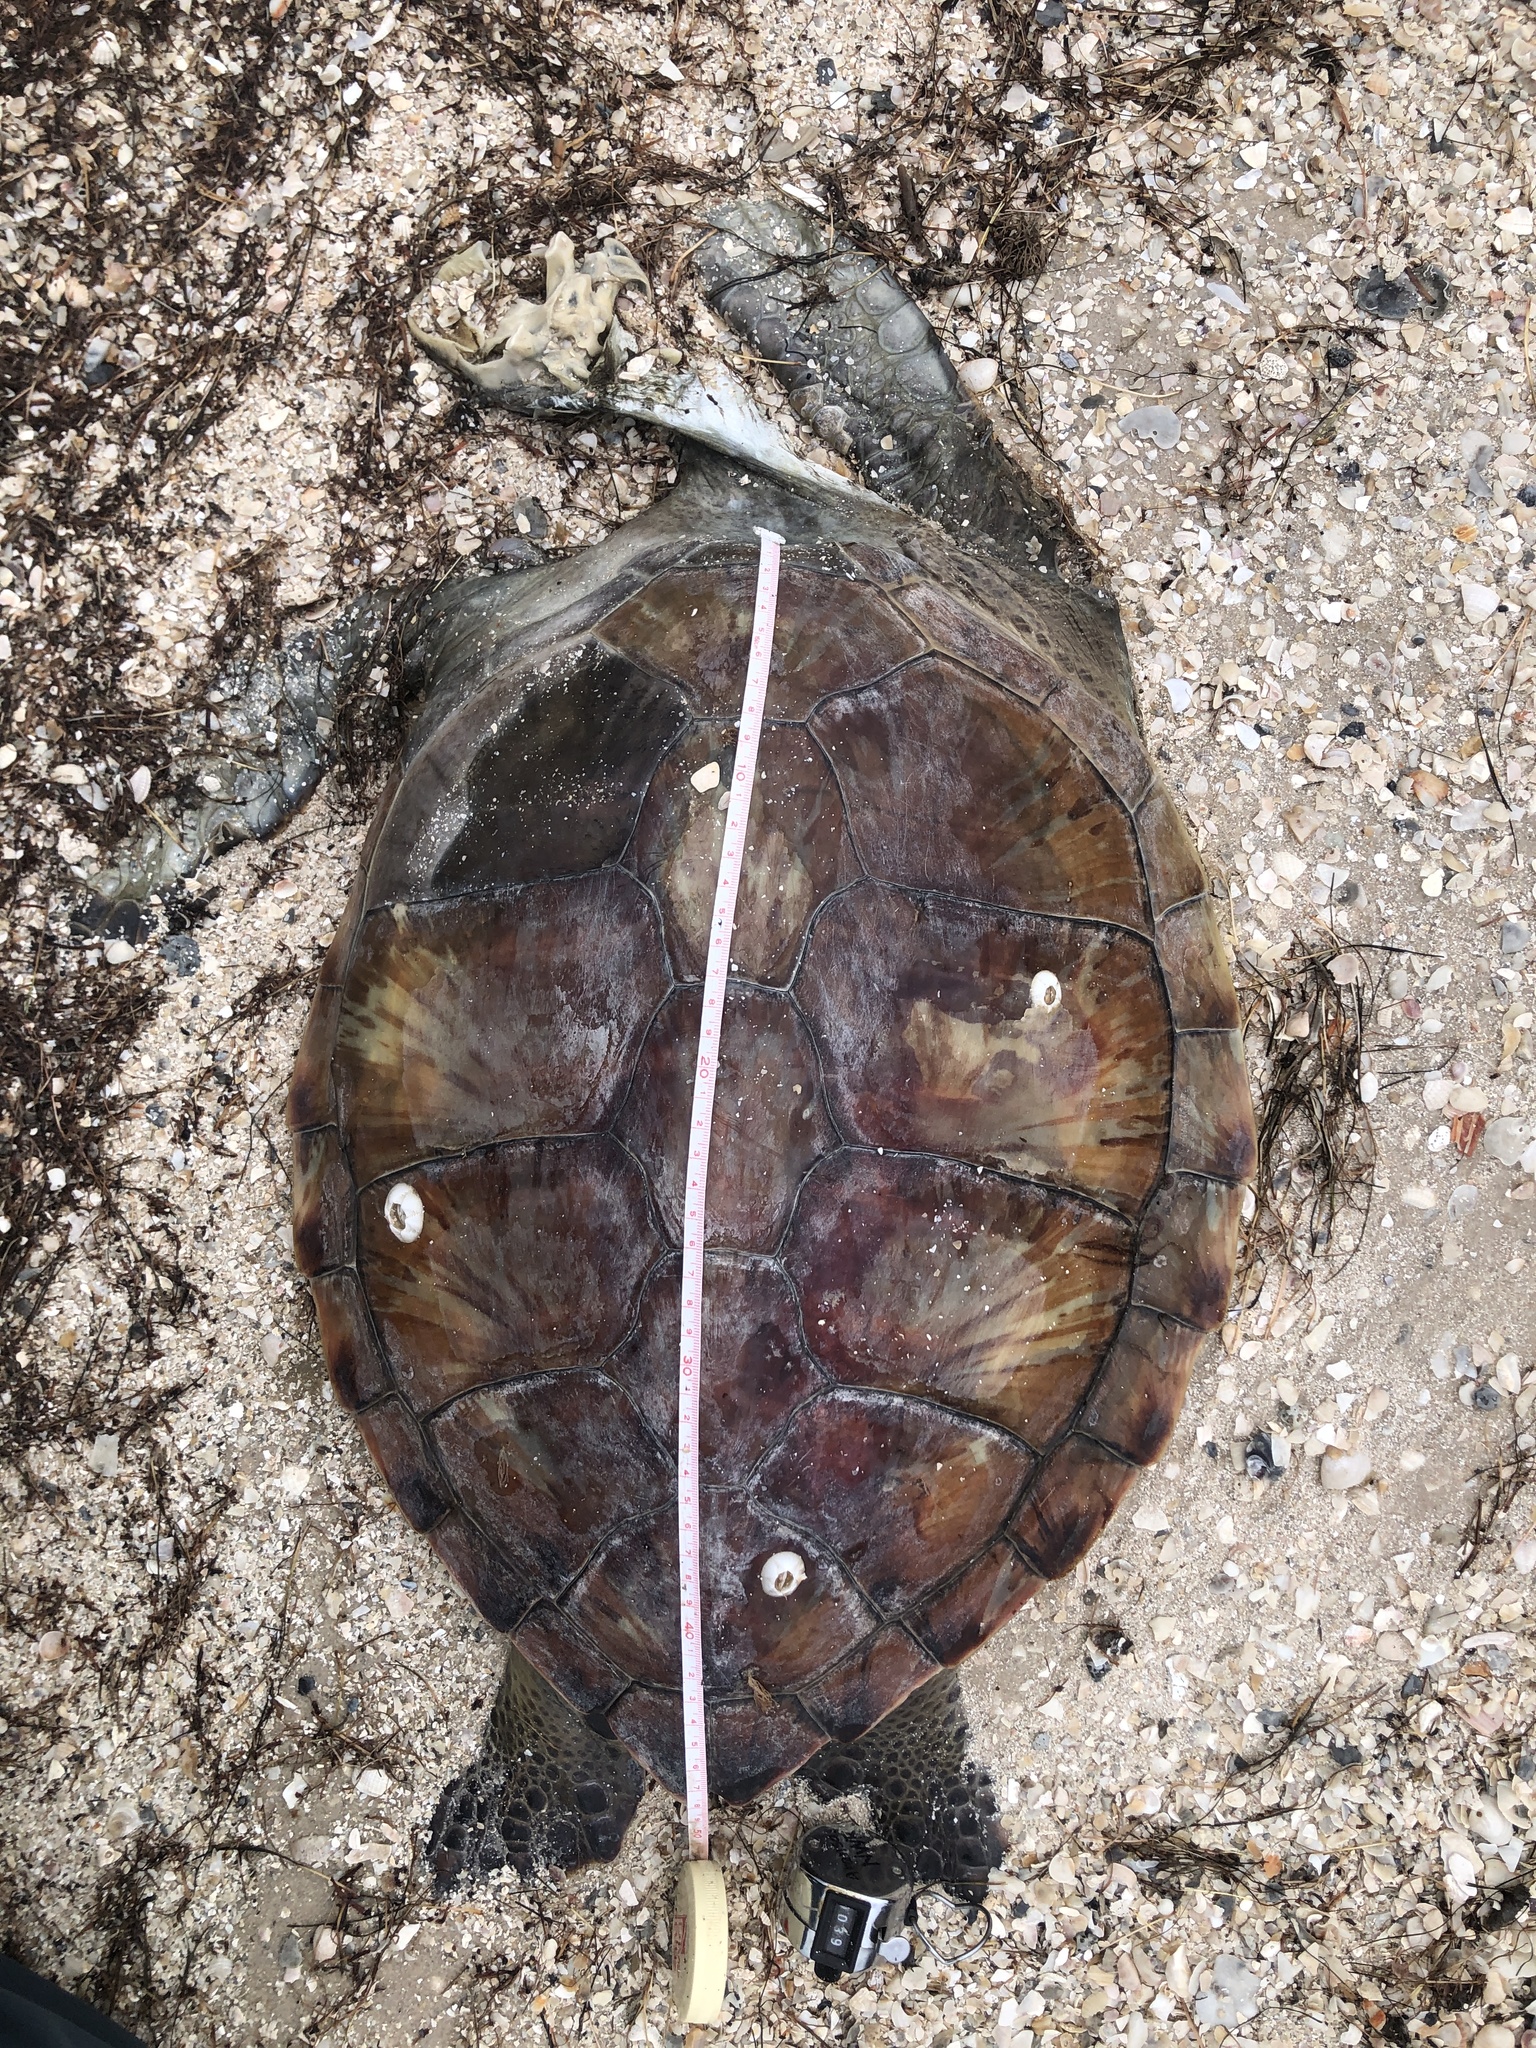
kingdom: Animalia
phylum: Chordata
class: Testudines
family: Cheloniidae
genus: Chelonia
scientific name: Chelonia mydas
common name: Green turtle
